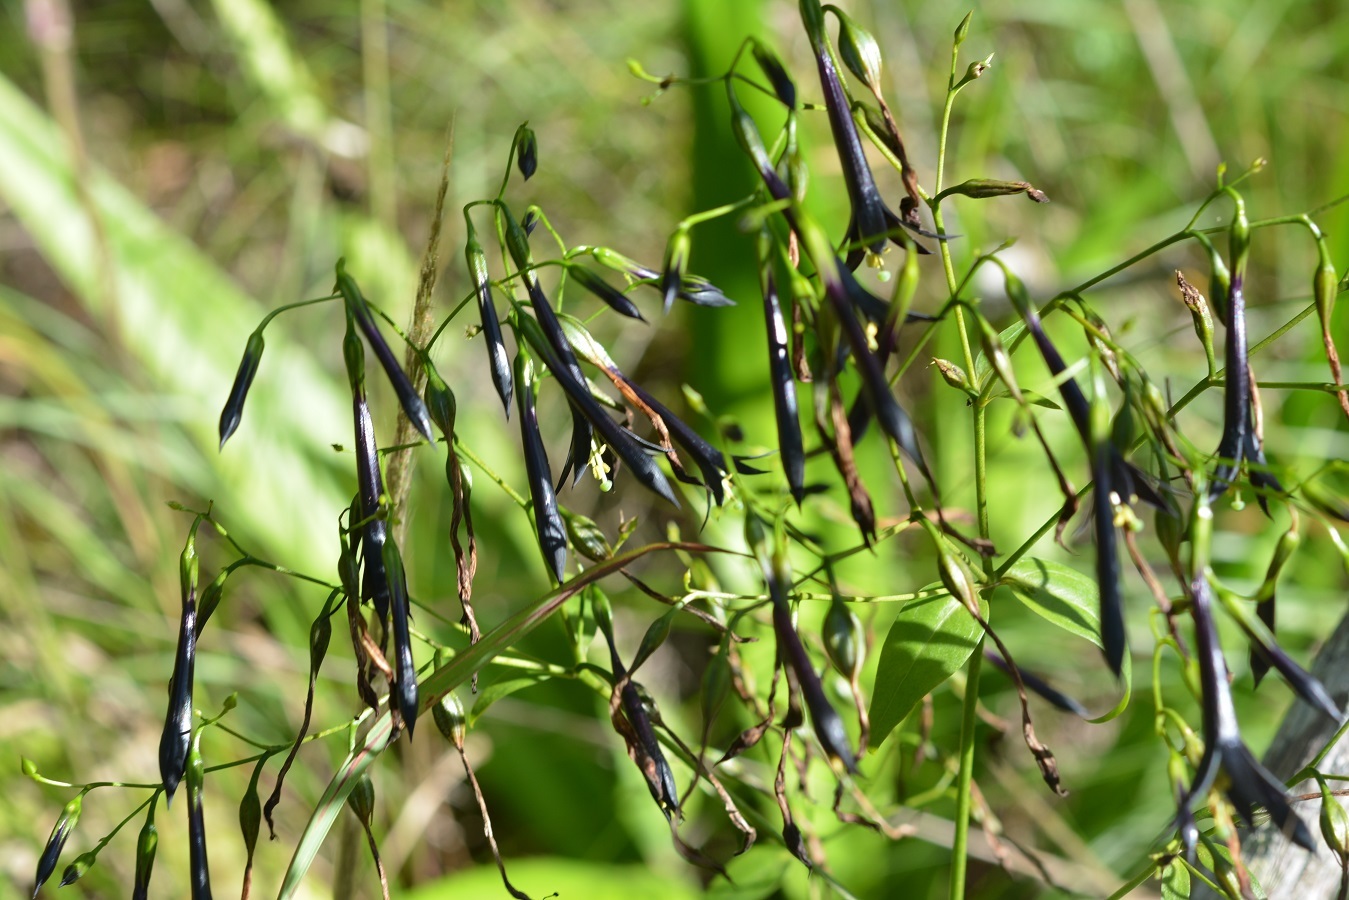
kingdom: Plantae
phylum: Tracheophyta
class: Magnoliopsida
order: Gentianales
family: Gentianaceae
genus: Lisianthus
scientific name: Lisianthus nigrescens
